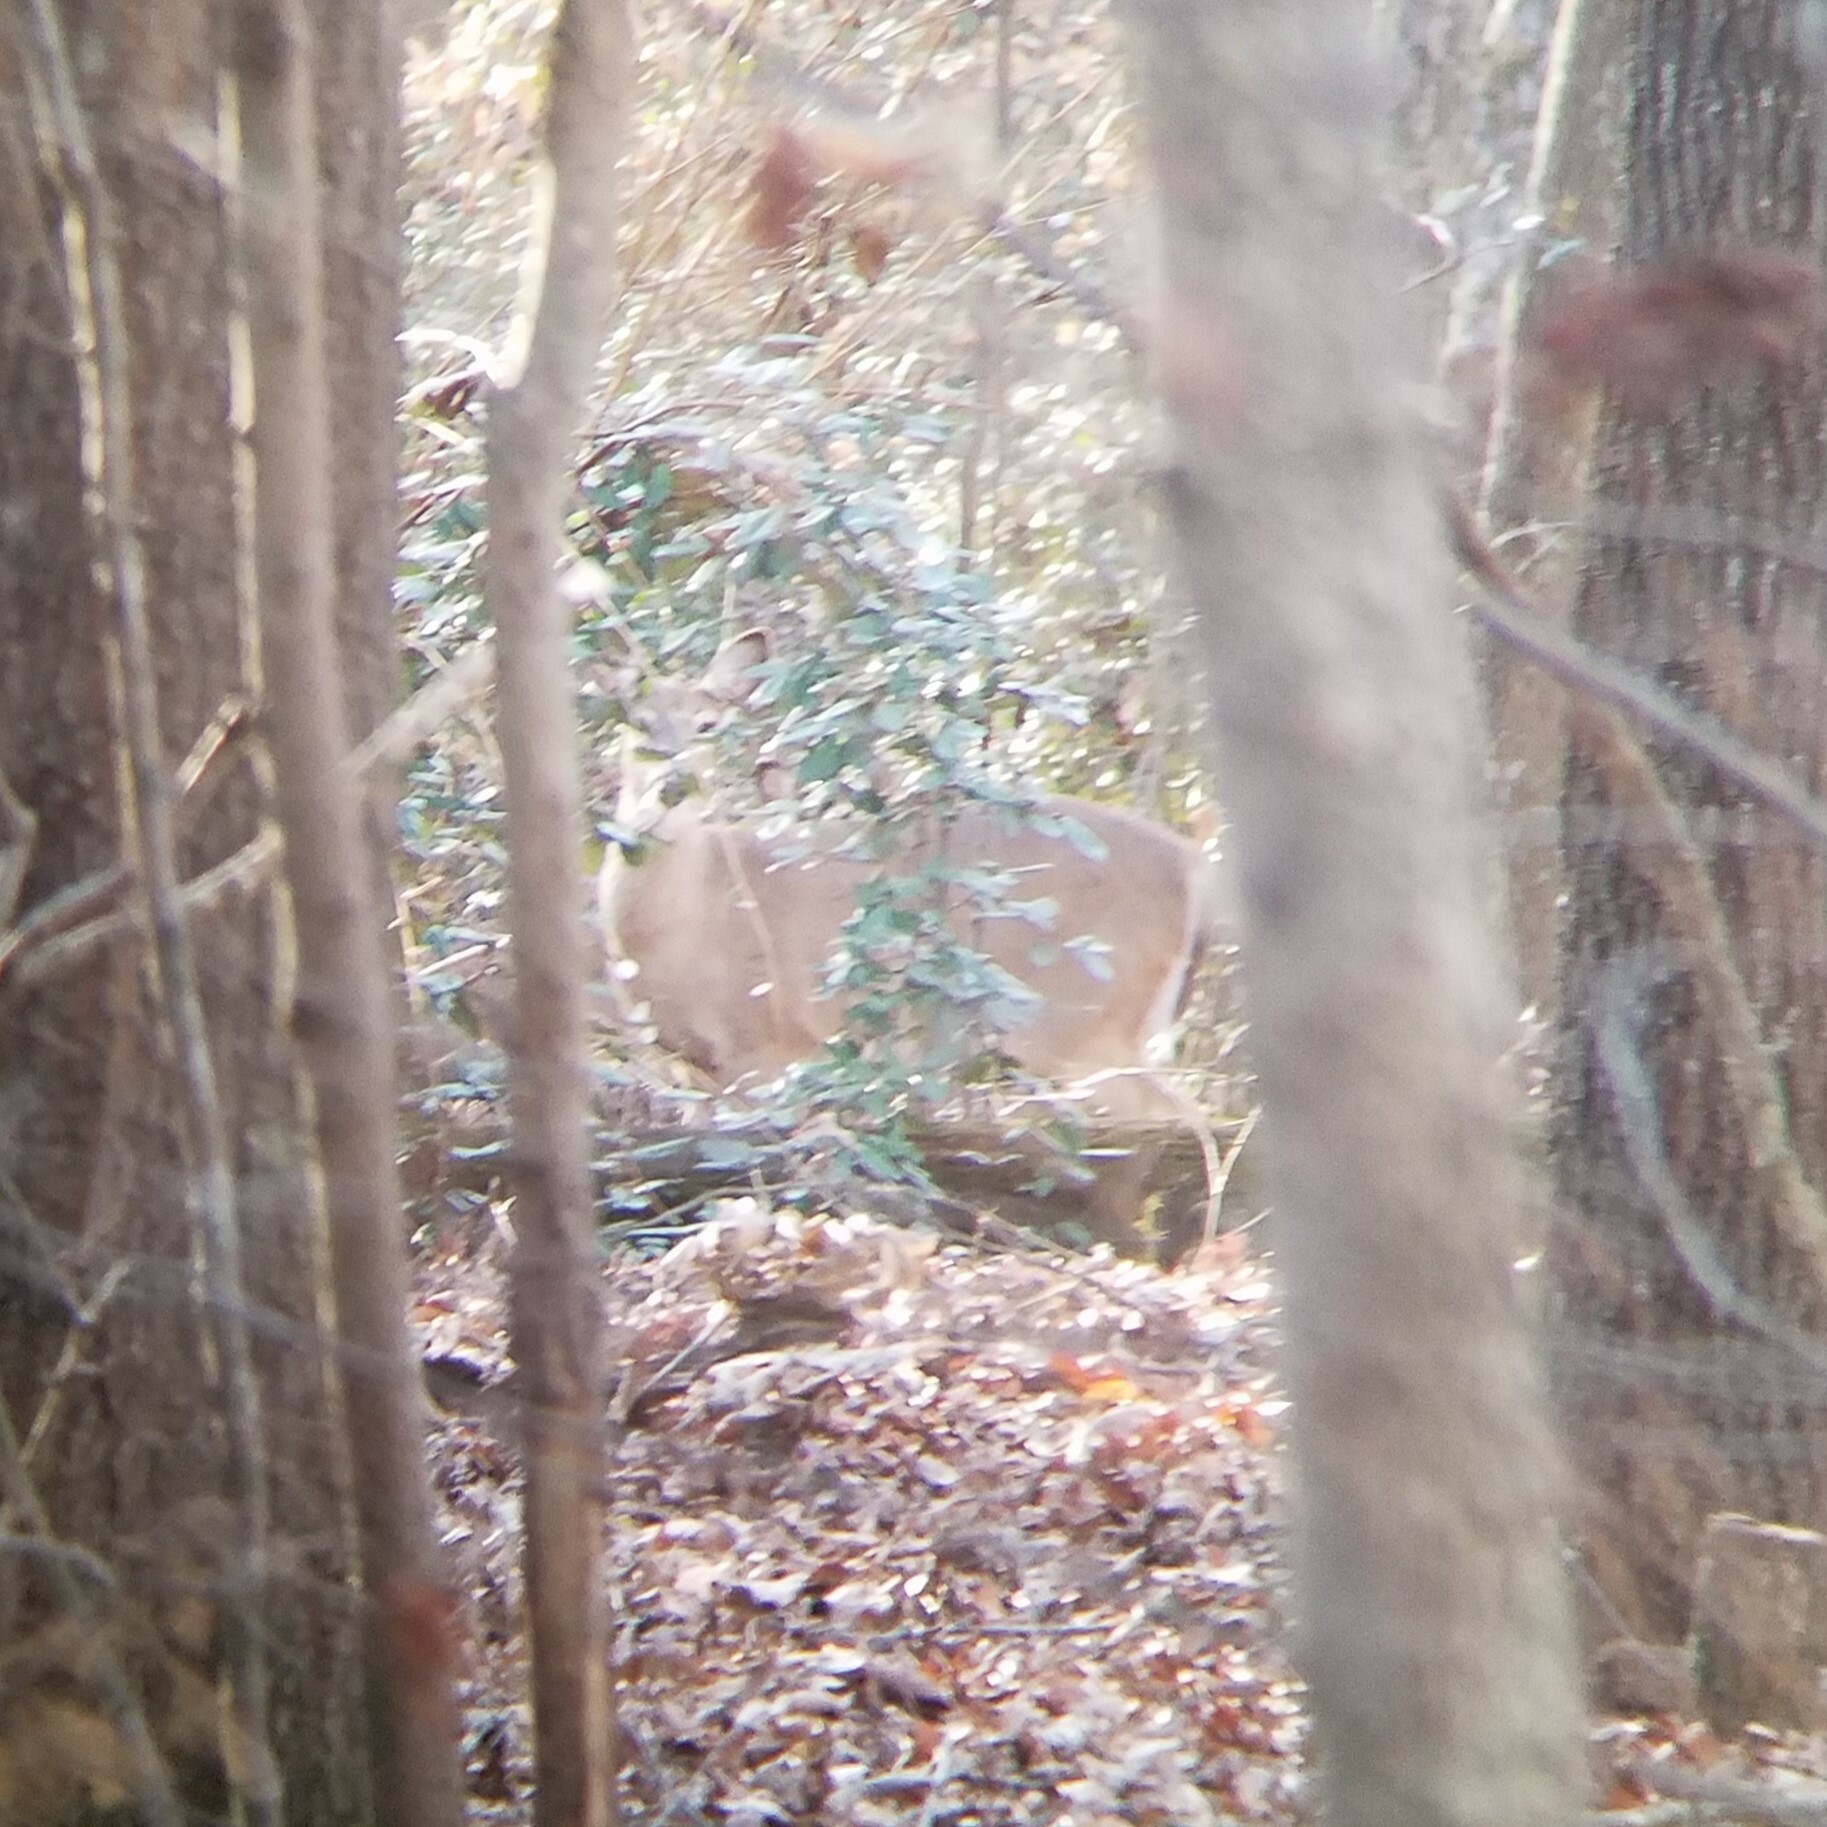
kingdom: Animalia
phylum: Chordata
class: Mammalia
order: Artiodactyla
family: Cervidae
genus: Odocoileus
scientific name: Odocoileus virginianus
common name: White-tailed deer
